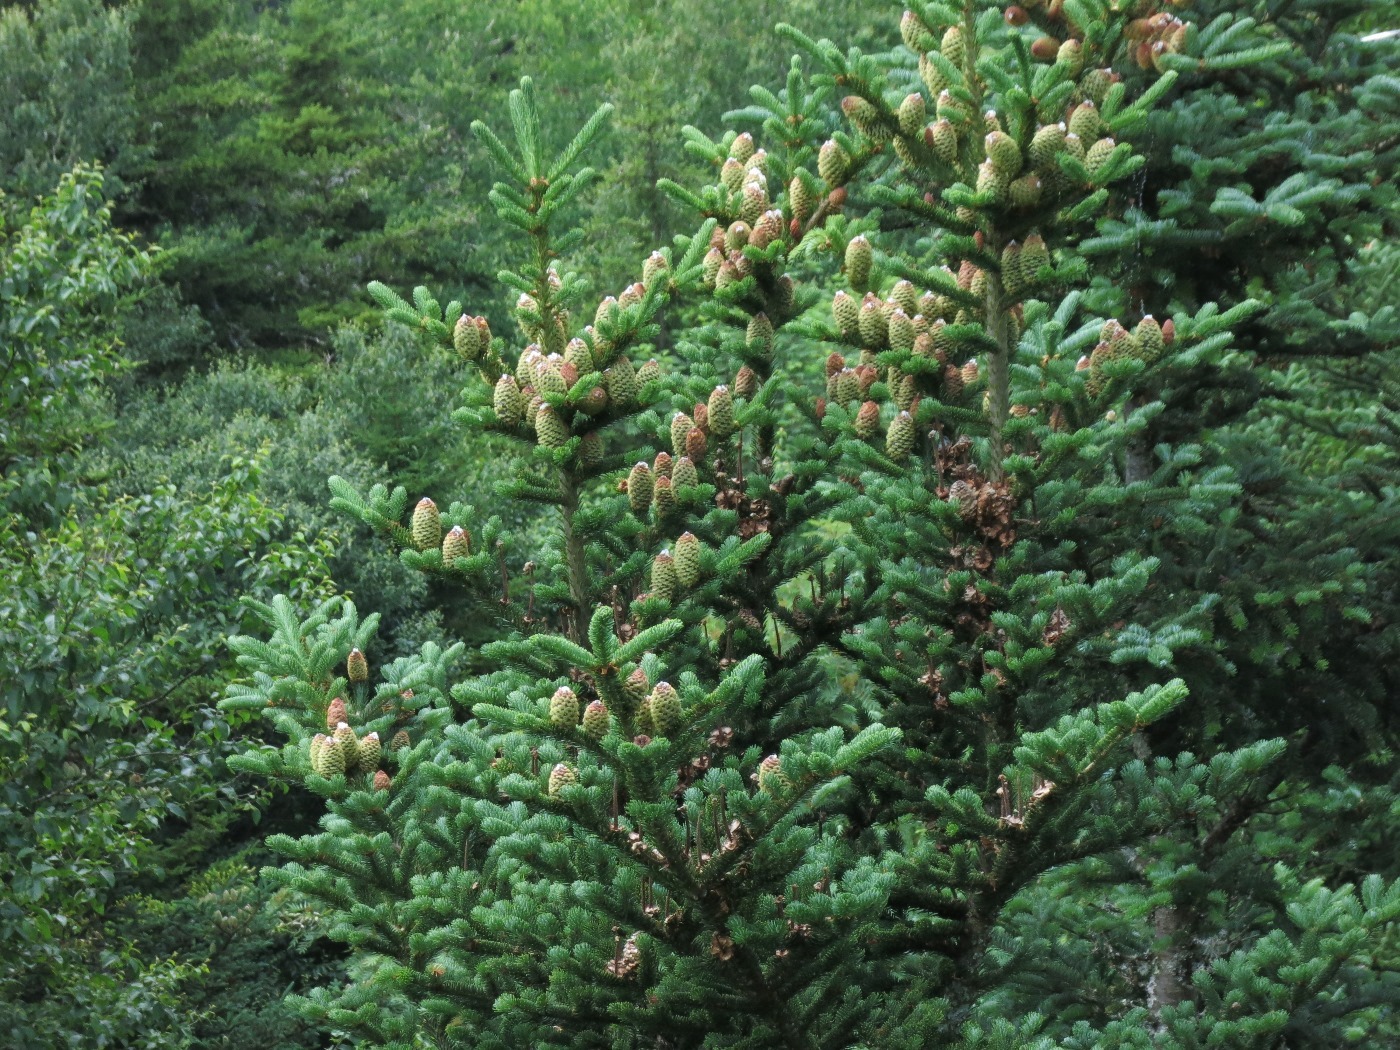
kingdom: Plantae
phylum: Tracheophyta
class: Pinopsida
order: Pinales
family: Pinaceae
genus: Abies
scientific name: Abies fraseri
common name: Fraser fir
